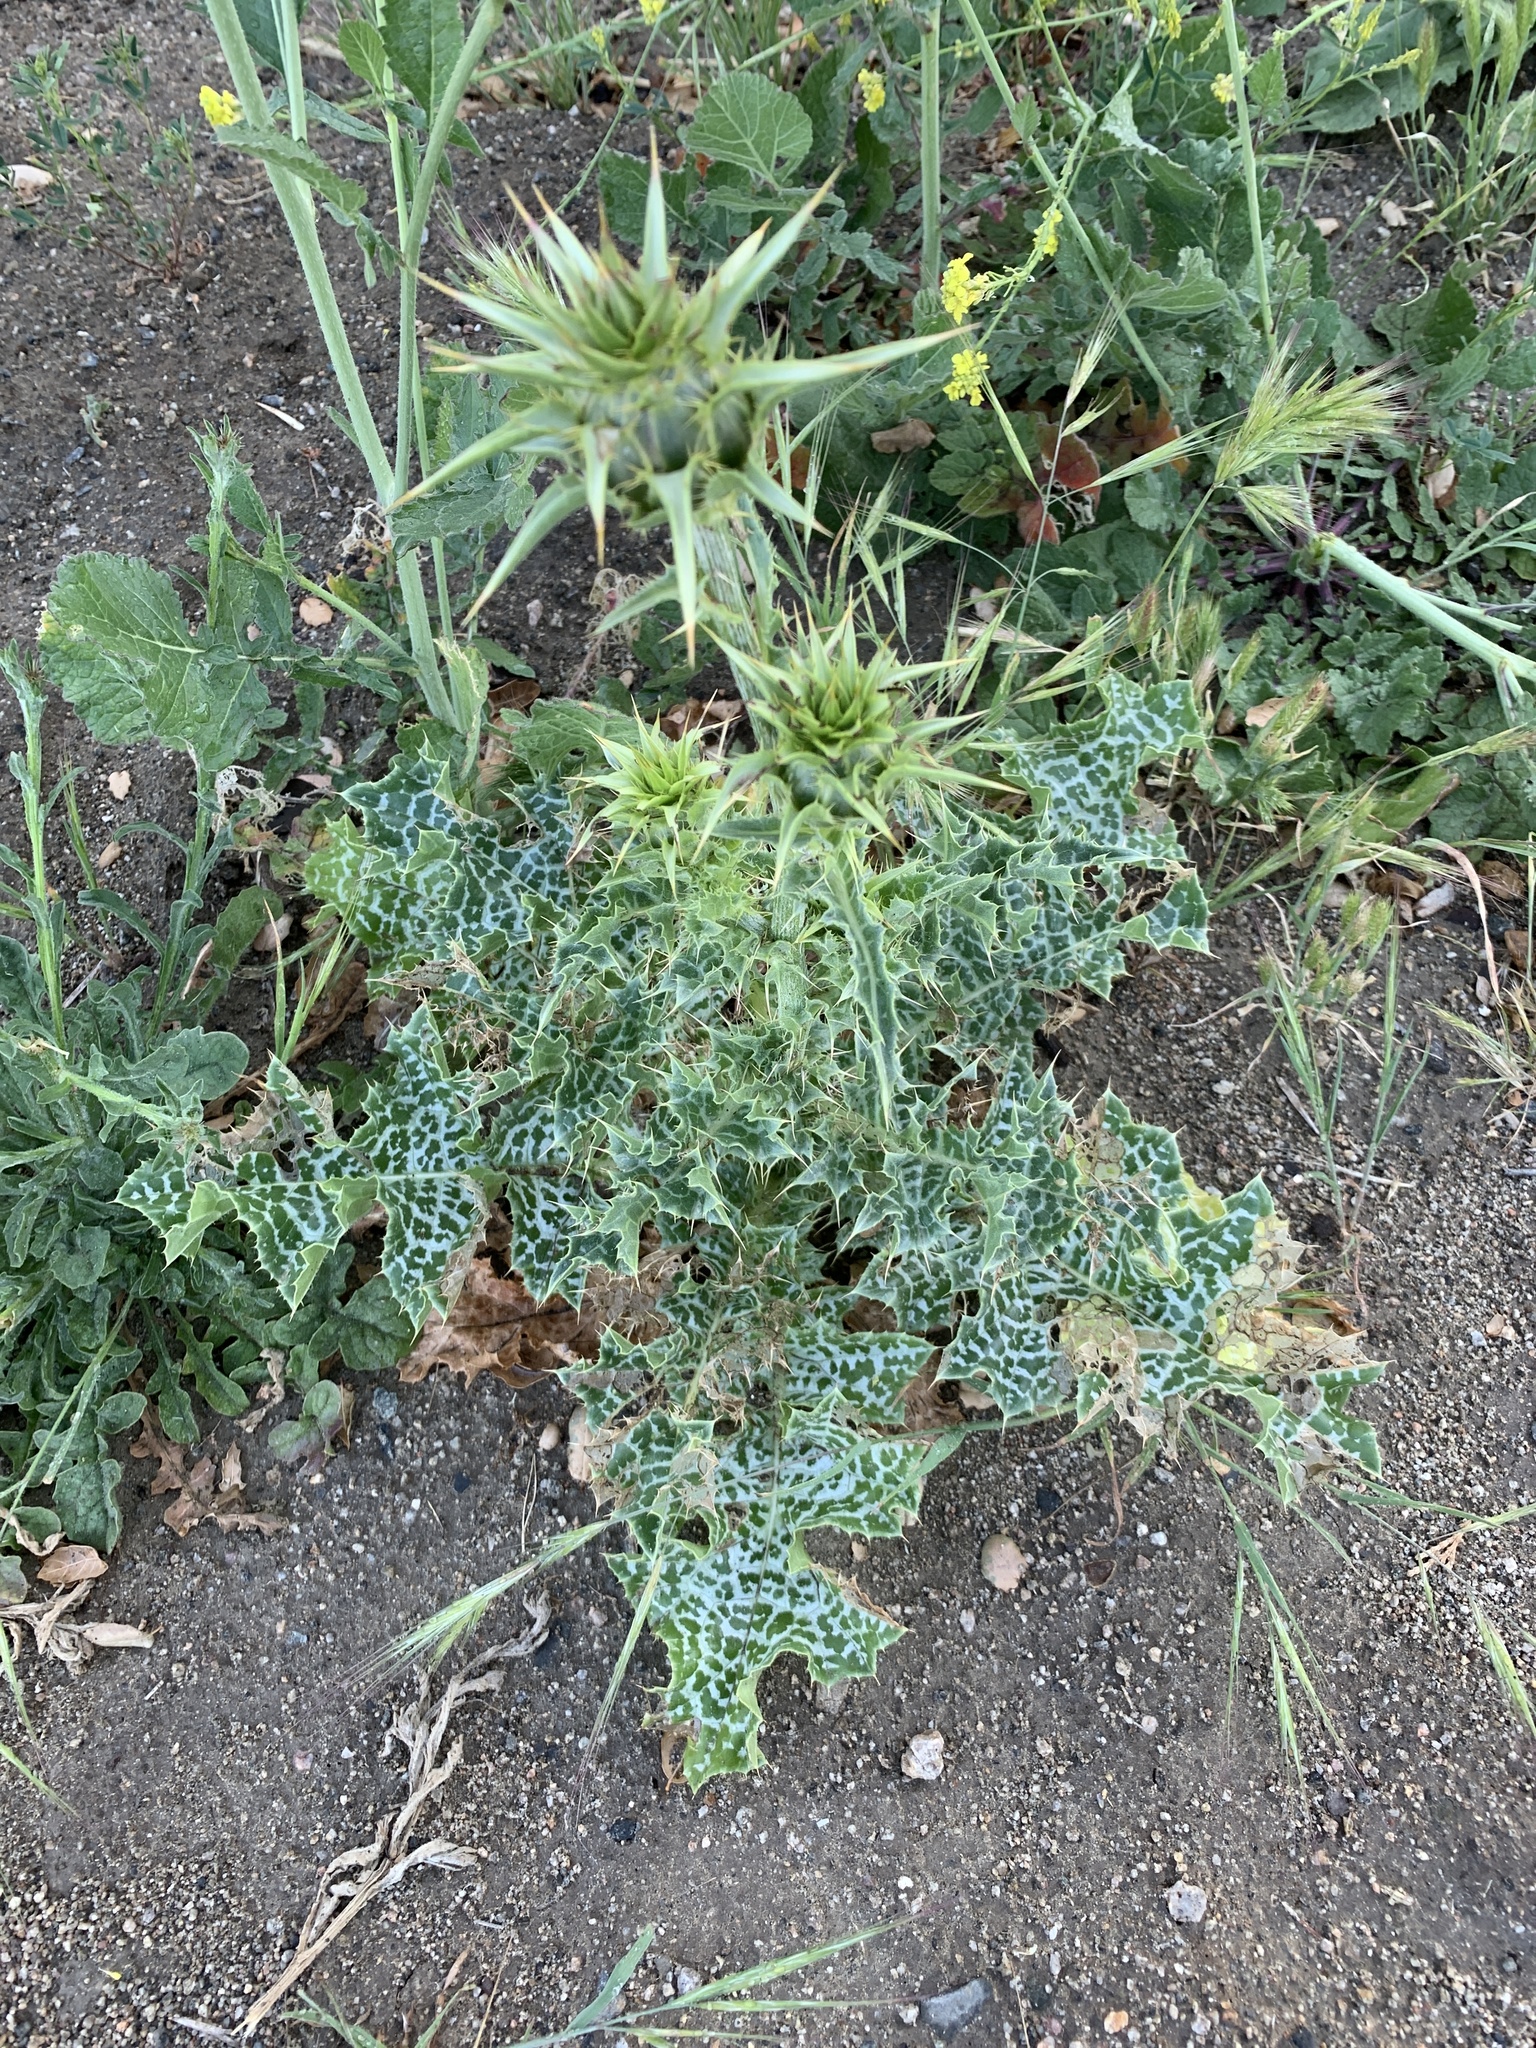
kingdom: Plantae
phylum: Tracheophyta
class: Magnoliopsida
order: Asterales
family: Asteraceae
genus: Silybum
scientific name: Silybum marianum
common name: Milk thistle
